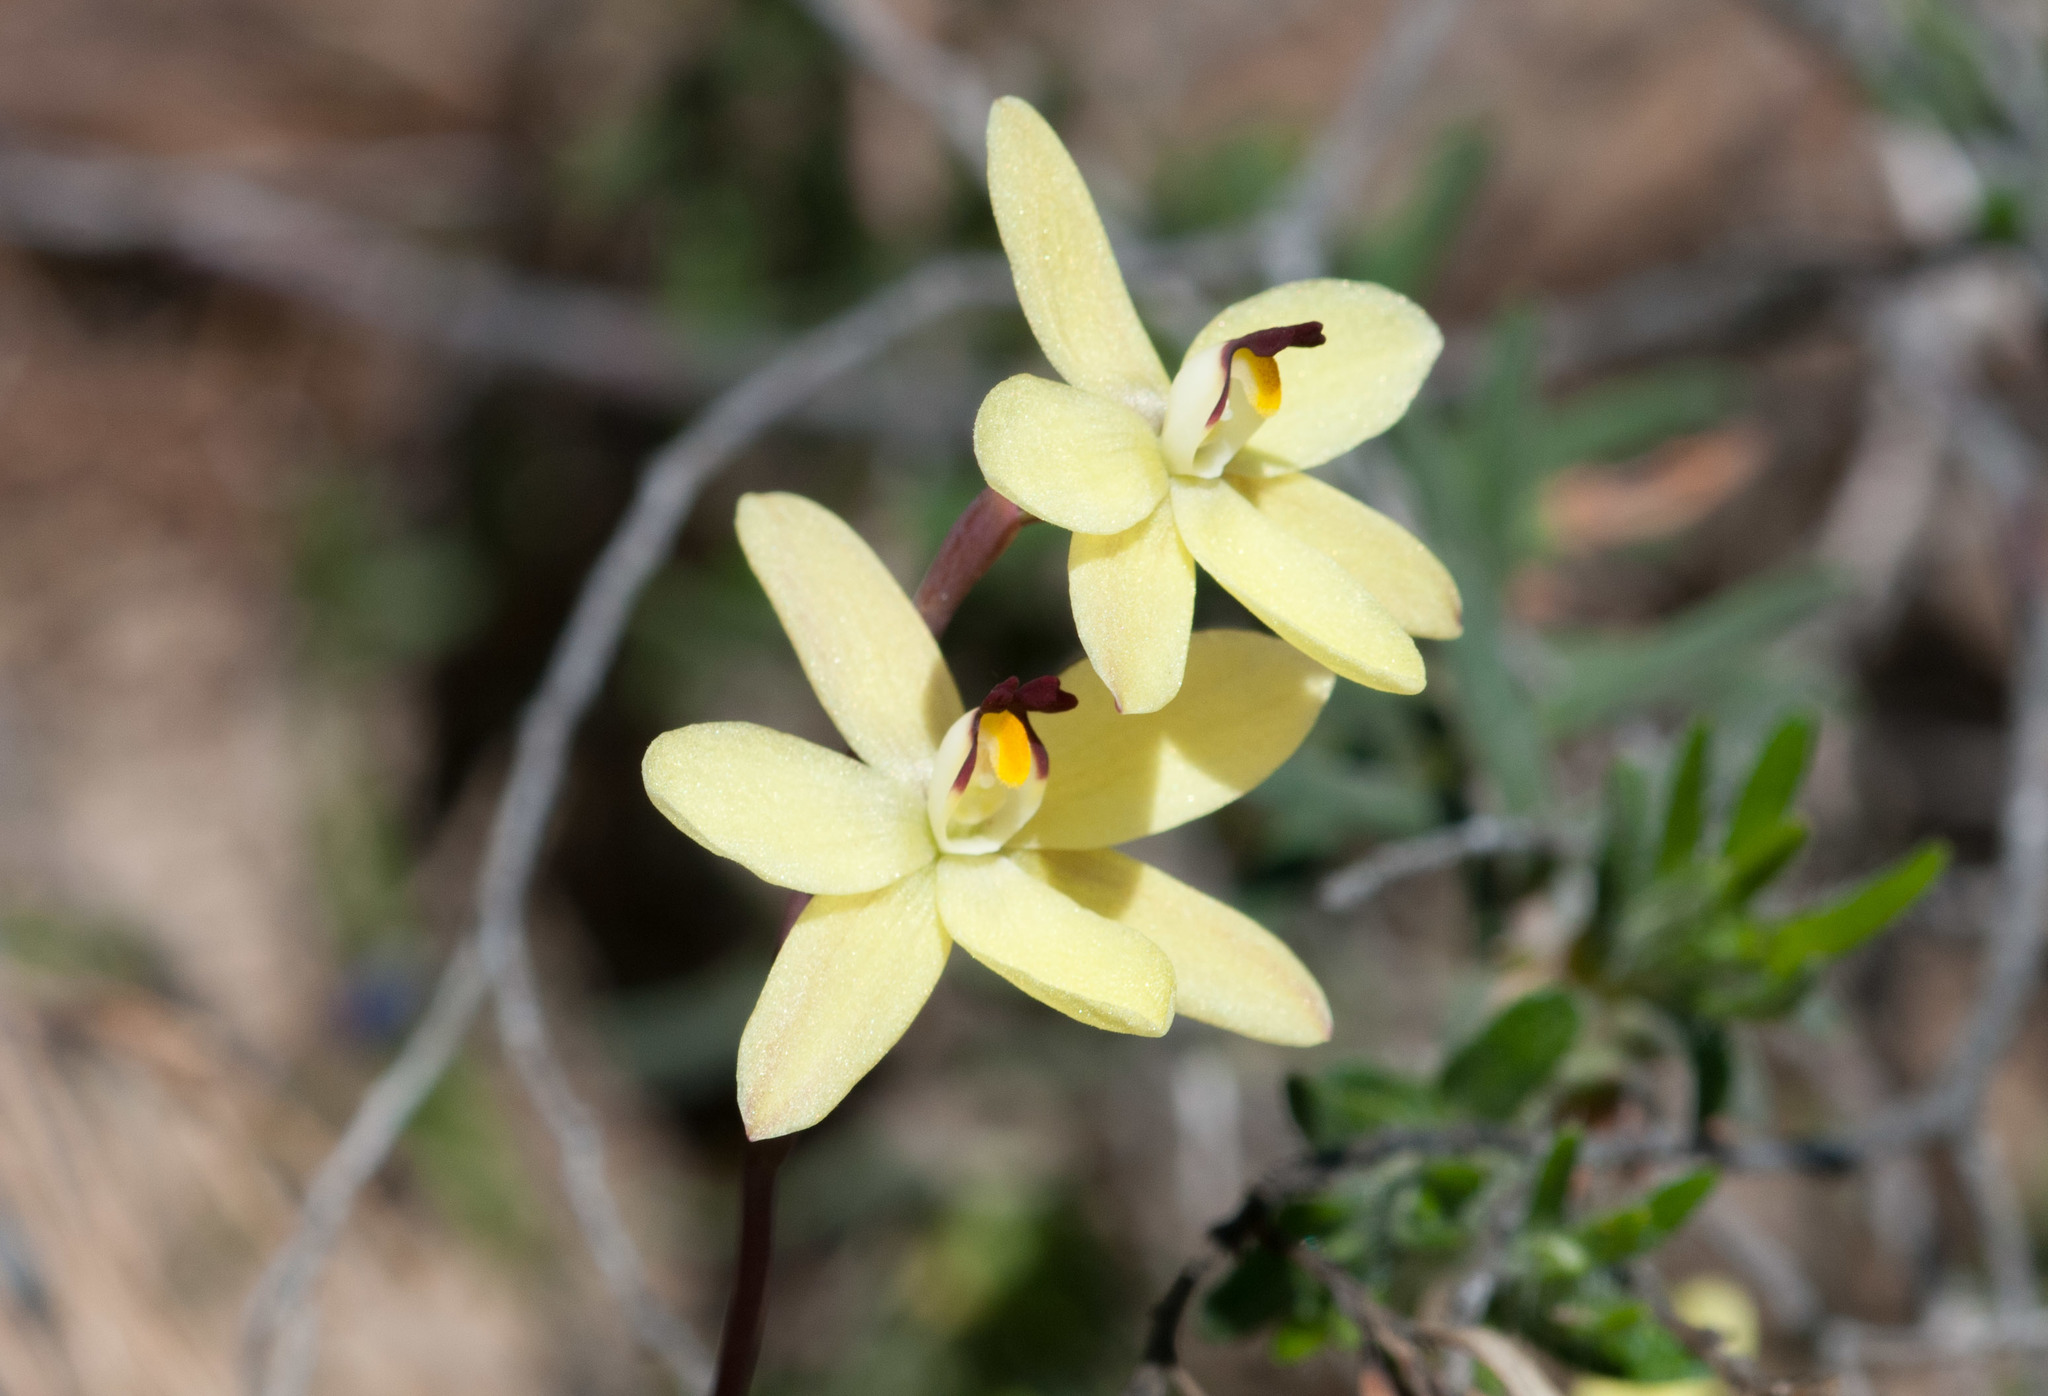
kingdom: Plantae
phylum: Tracheophyta
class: Liliopsida
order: Asparagales
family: Orchidaceae
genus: Thelymitra
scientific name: Thelymitra antennifera
